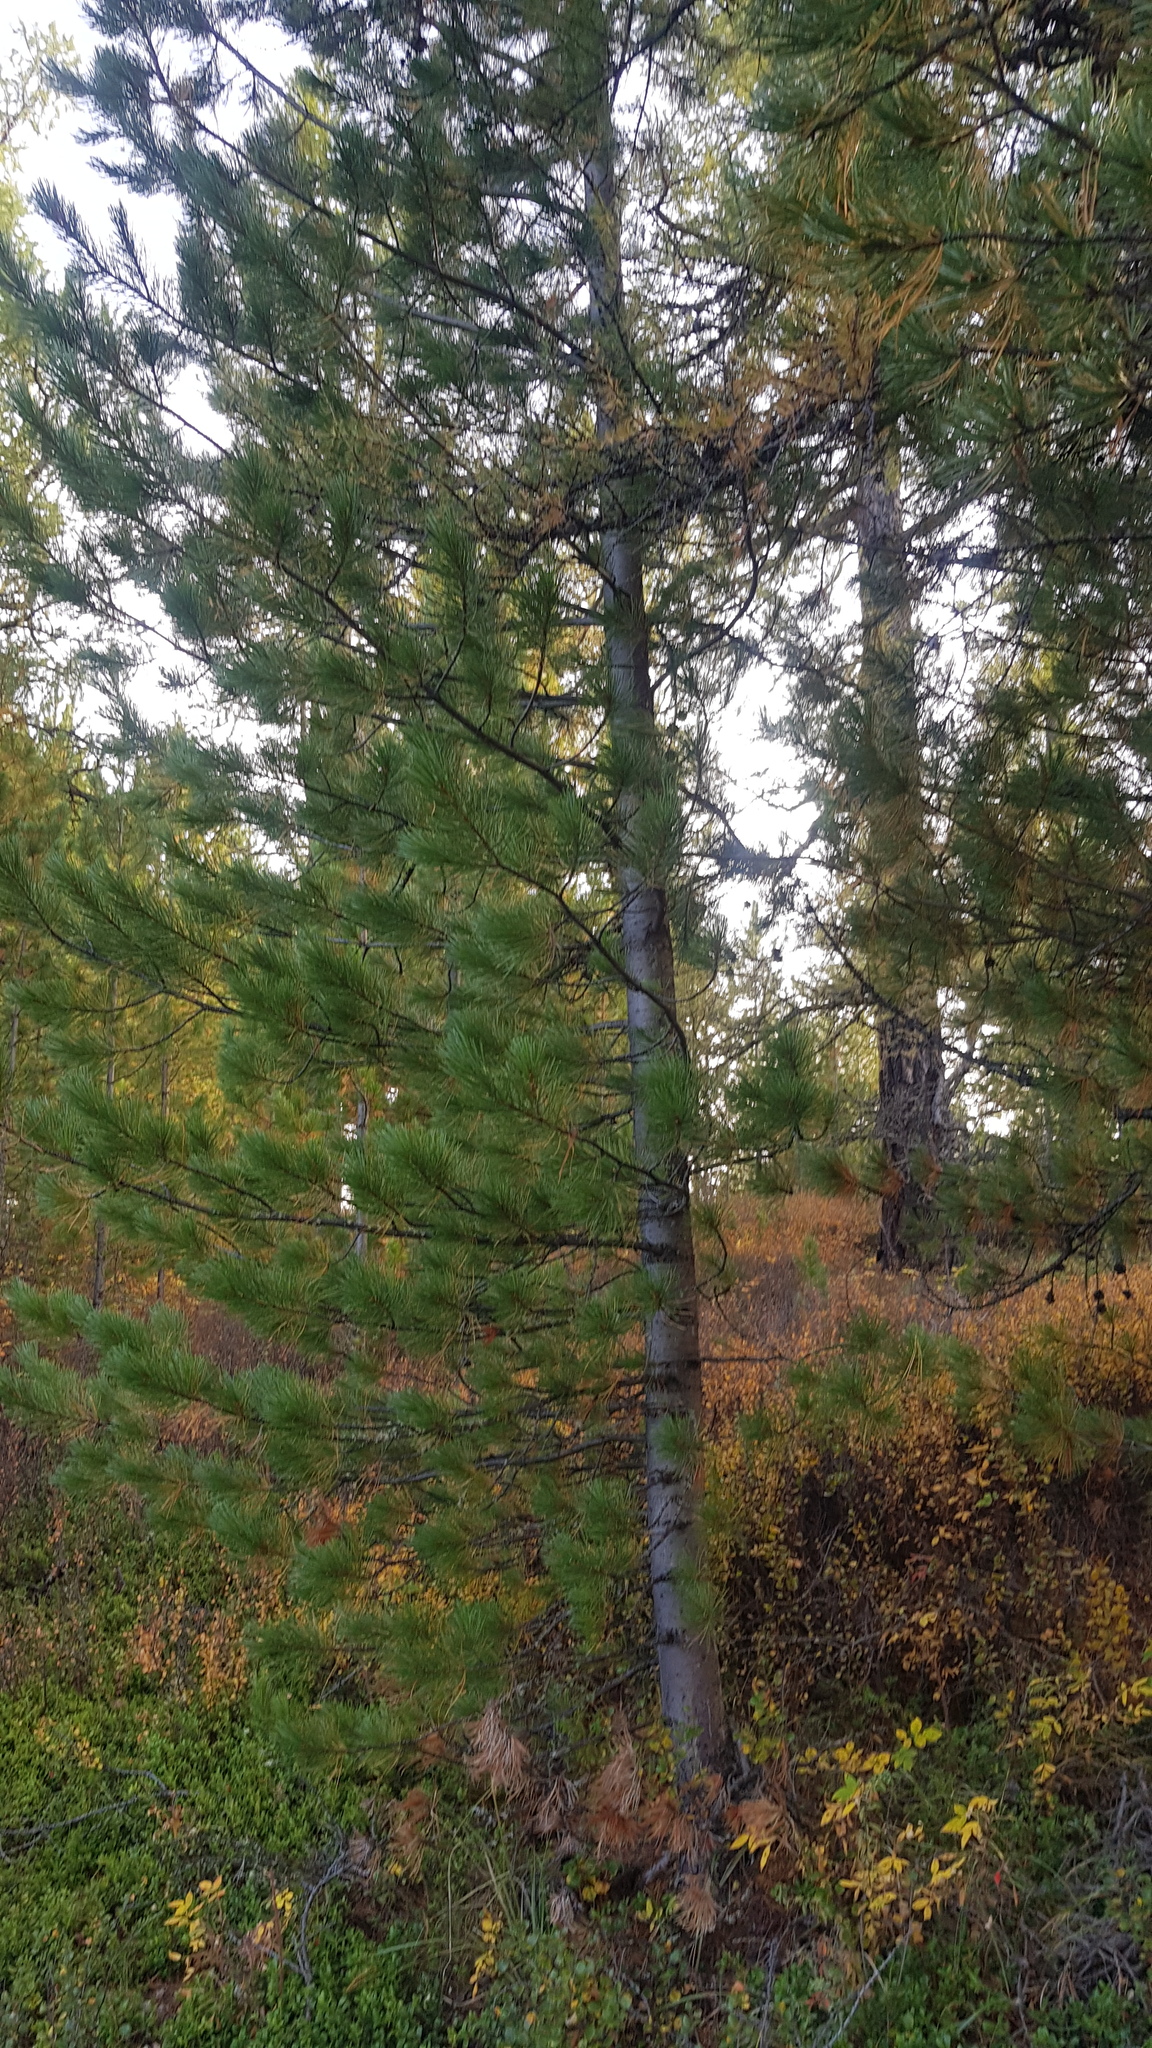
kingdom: Plantae
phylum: Tracheophyta
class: Pinopsida
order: Pinales
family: Pinaceae
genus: Pinus
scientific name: Pinus sibirica
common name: Siberian pine
